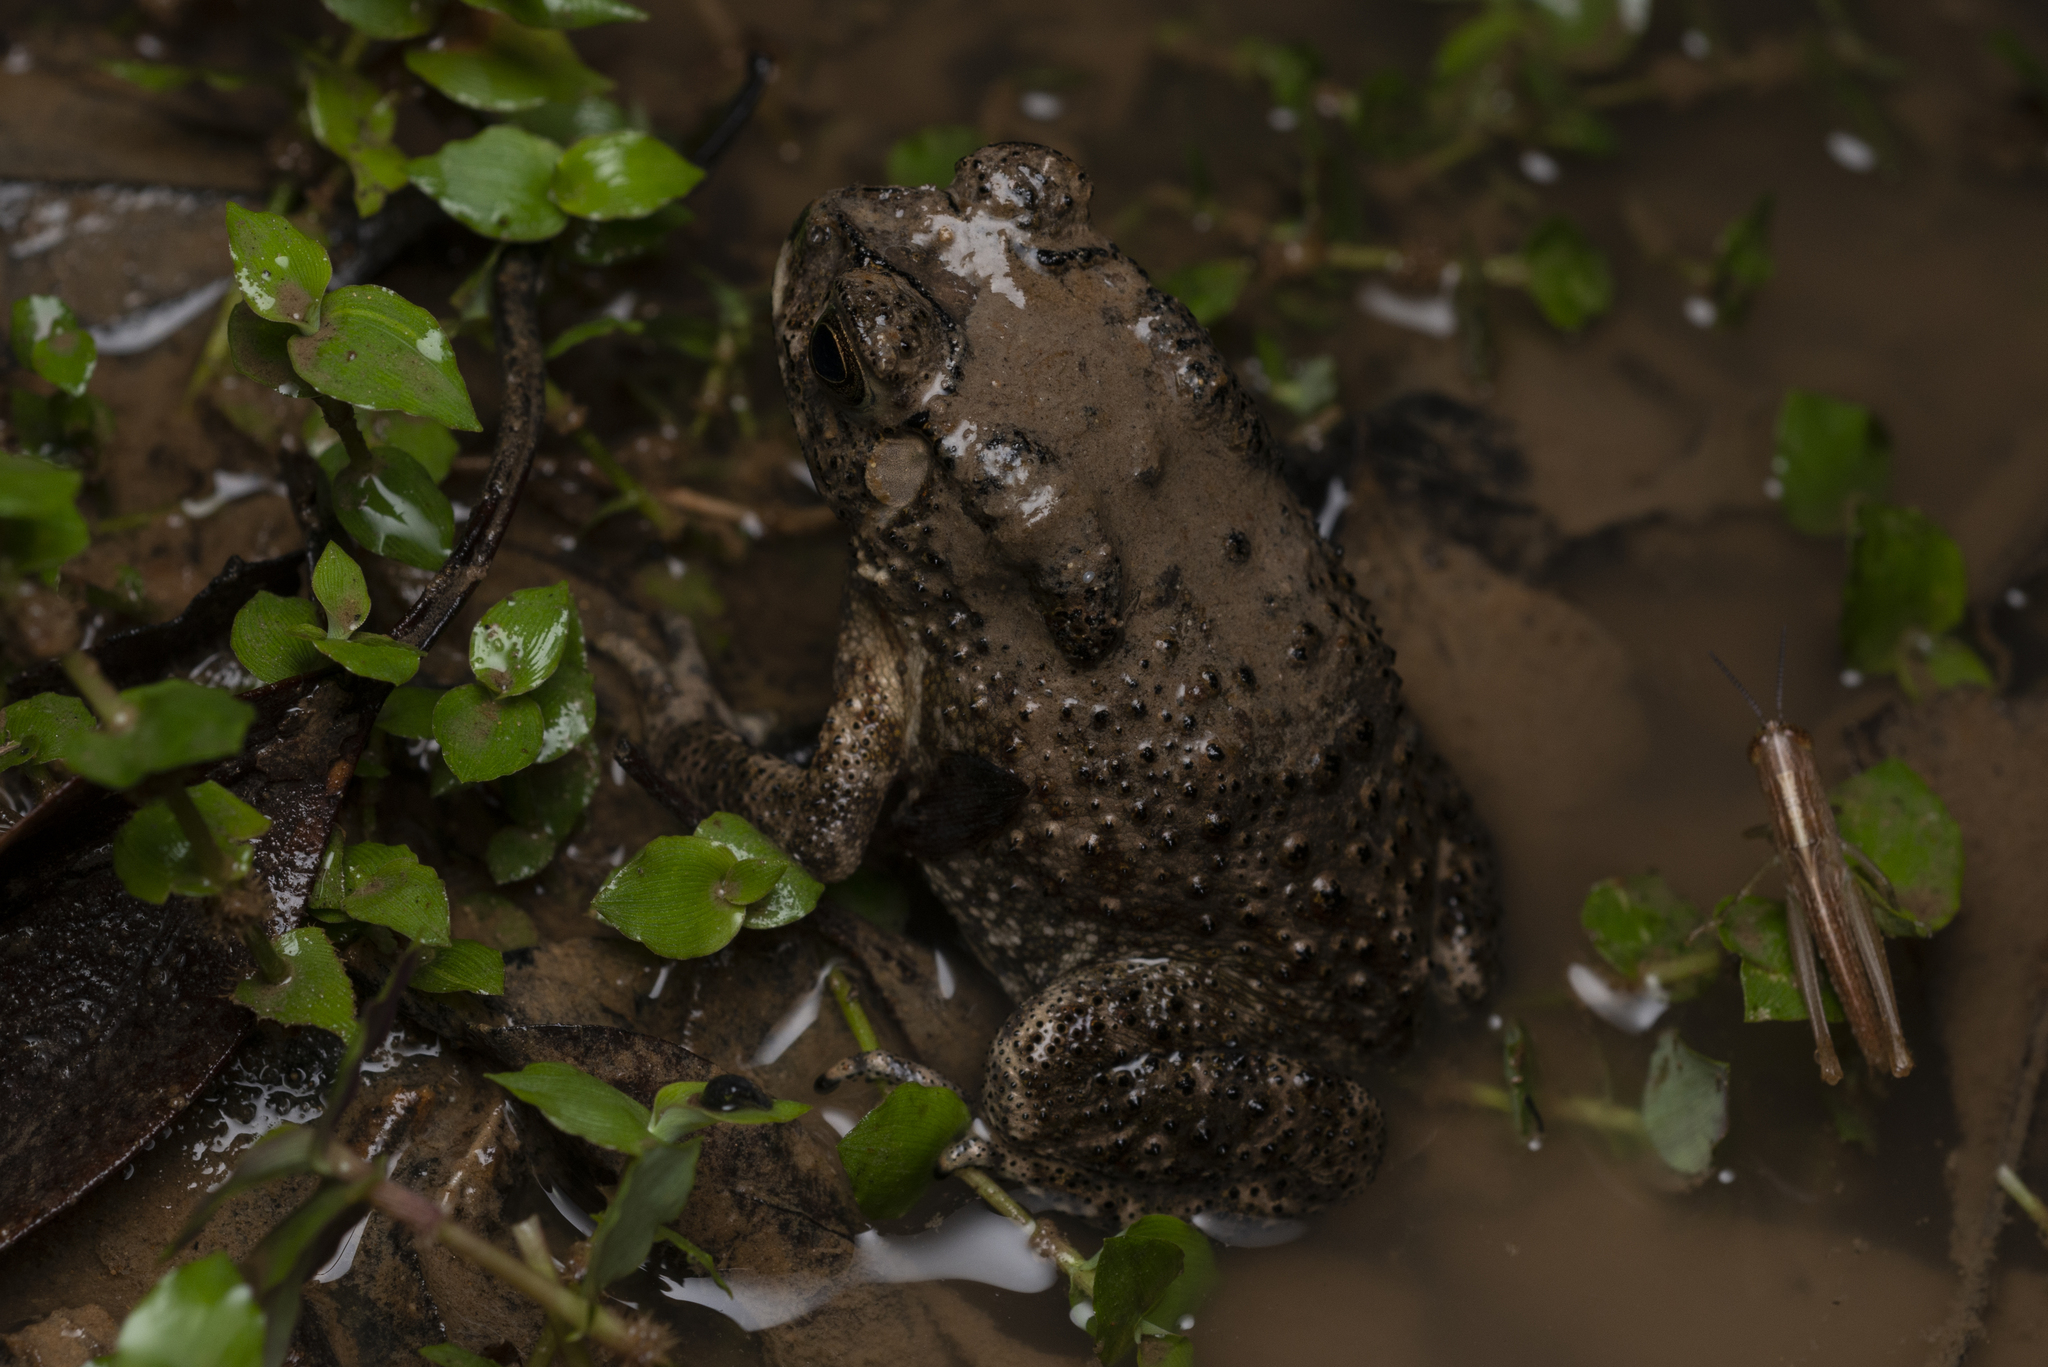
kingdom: Animalia
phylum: Chordata
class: Amphibia
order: Anura
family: Bufonidae
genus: Duttaphrynus
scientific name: Duttaphrynus melanostictus
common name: Common sunda toad
